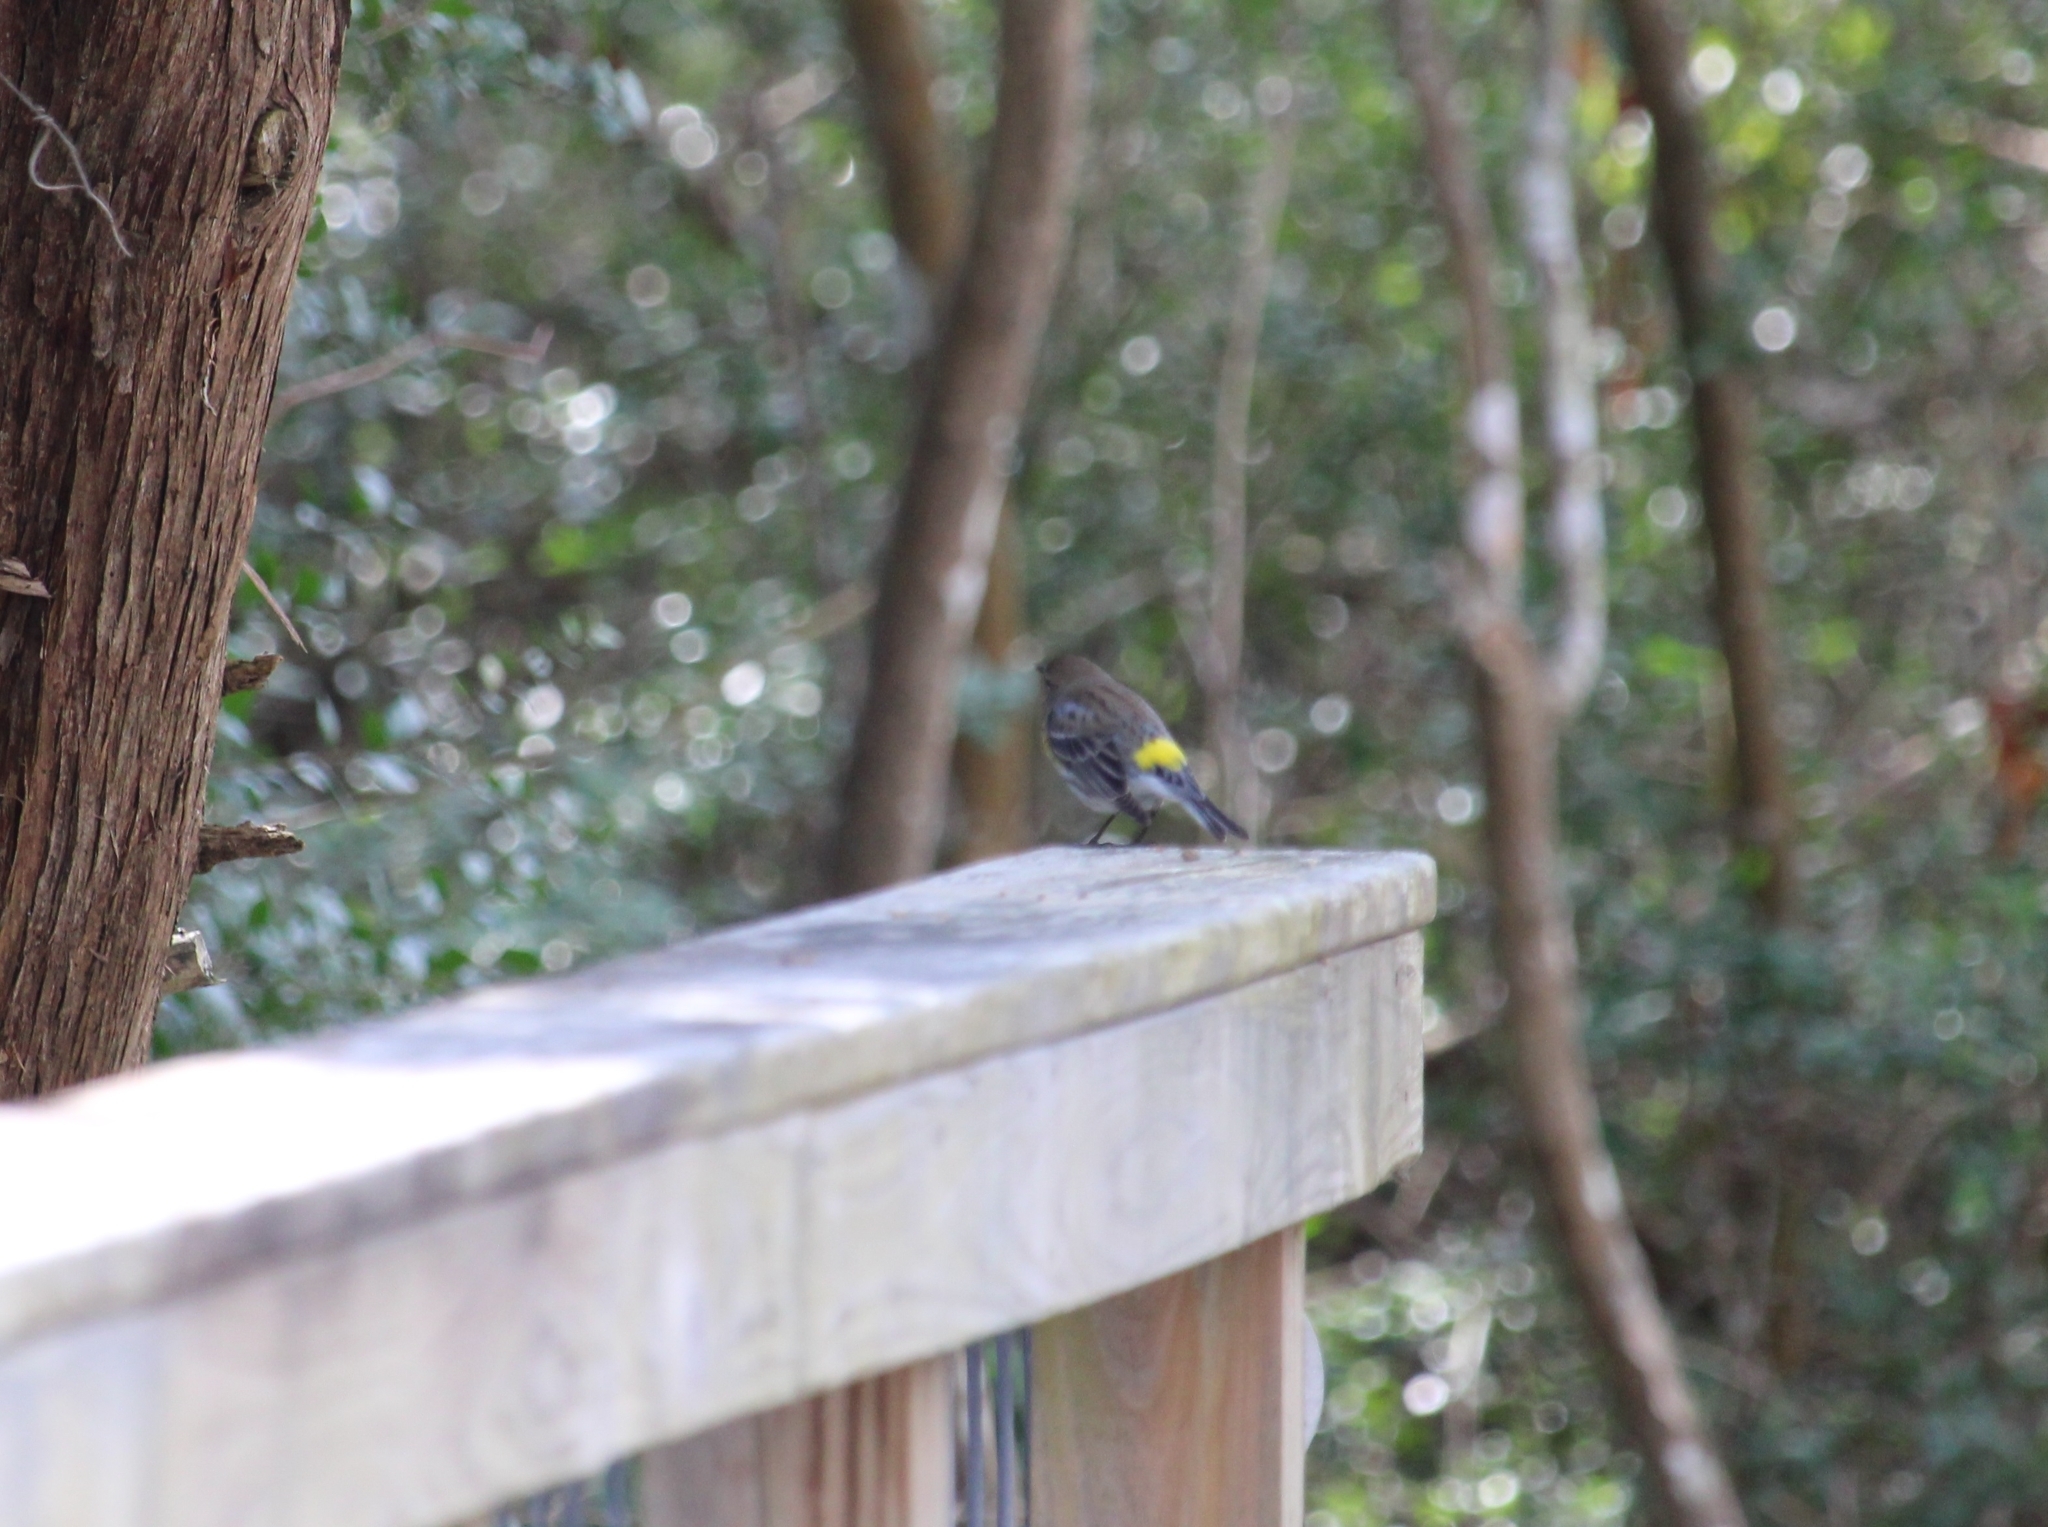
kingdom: Animalia
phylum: Chordata
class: Aves
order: Passeriformes
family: Parulidae
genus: Setophaga
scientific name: Setophaga coronata
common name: Myrtle warbler
